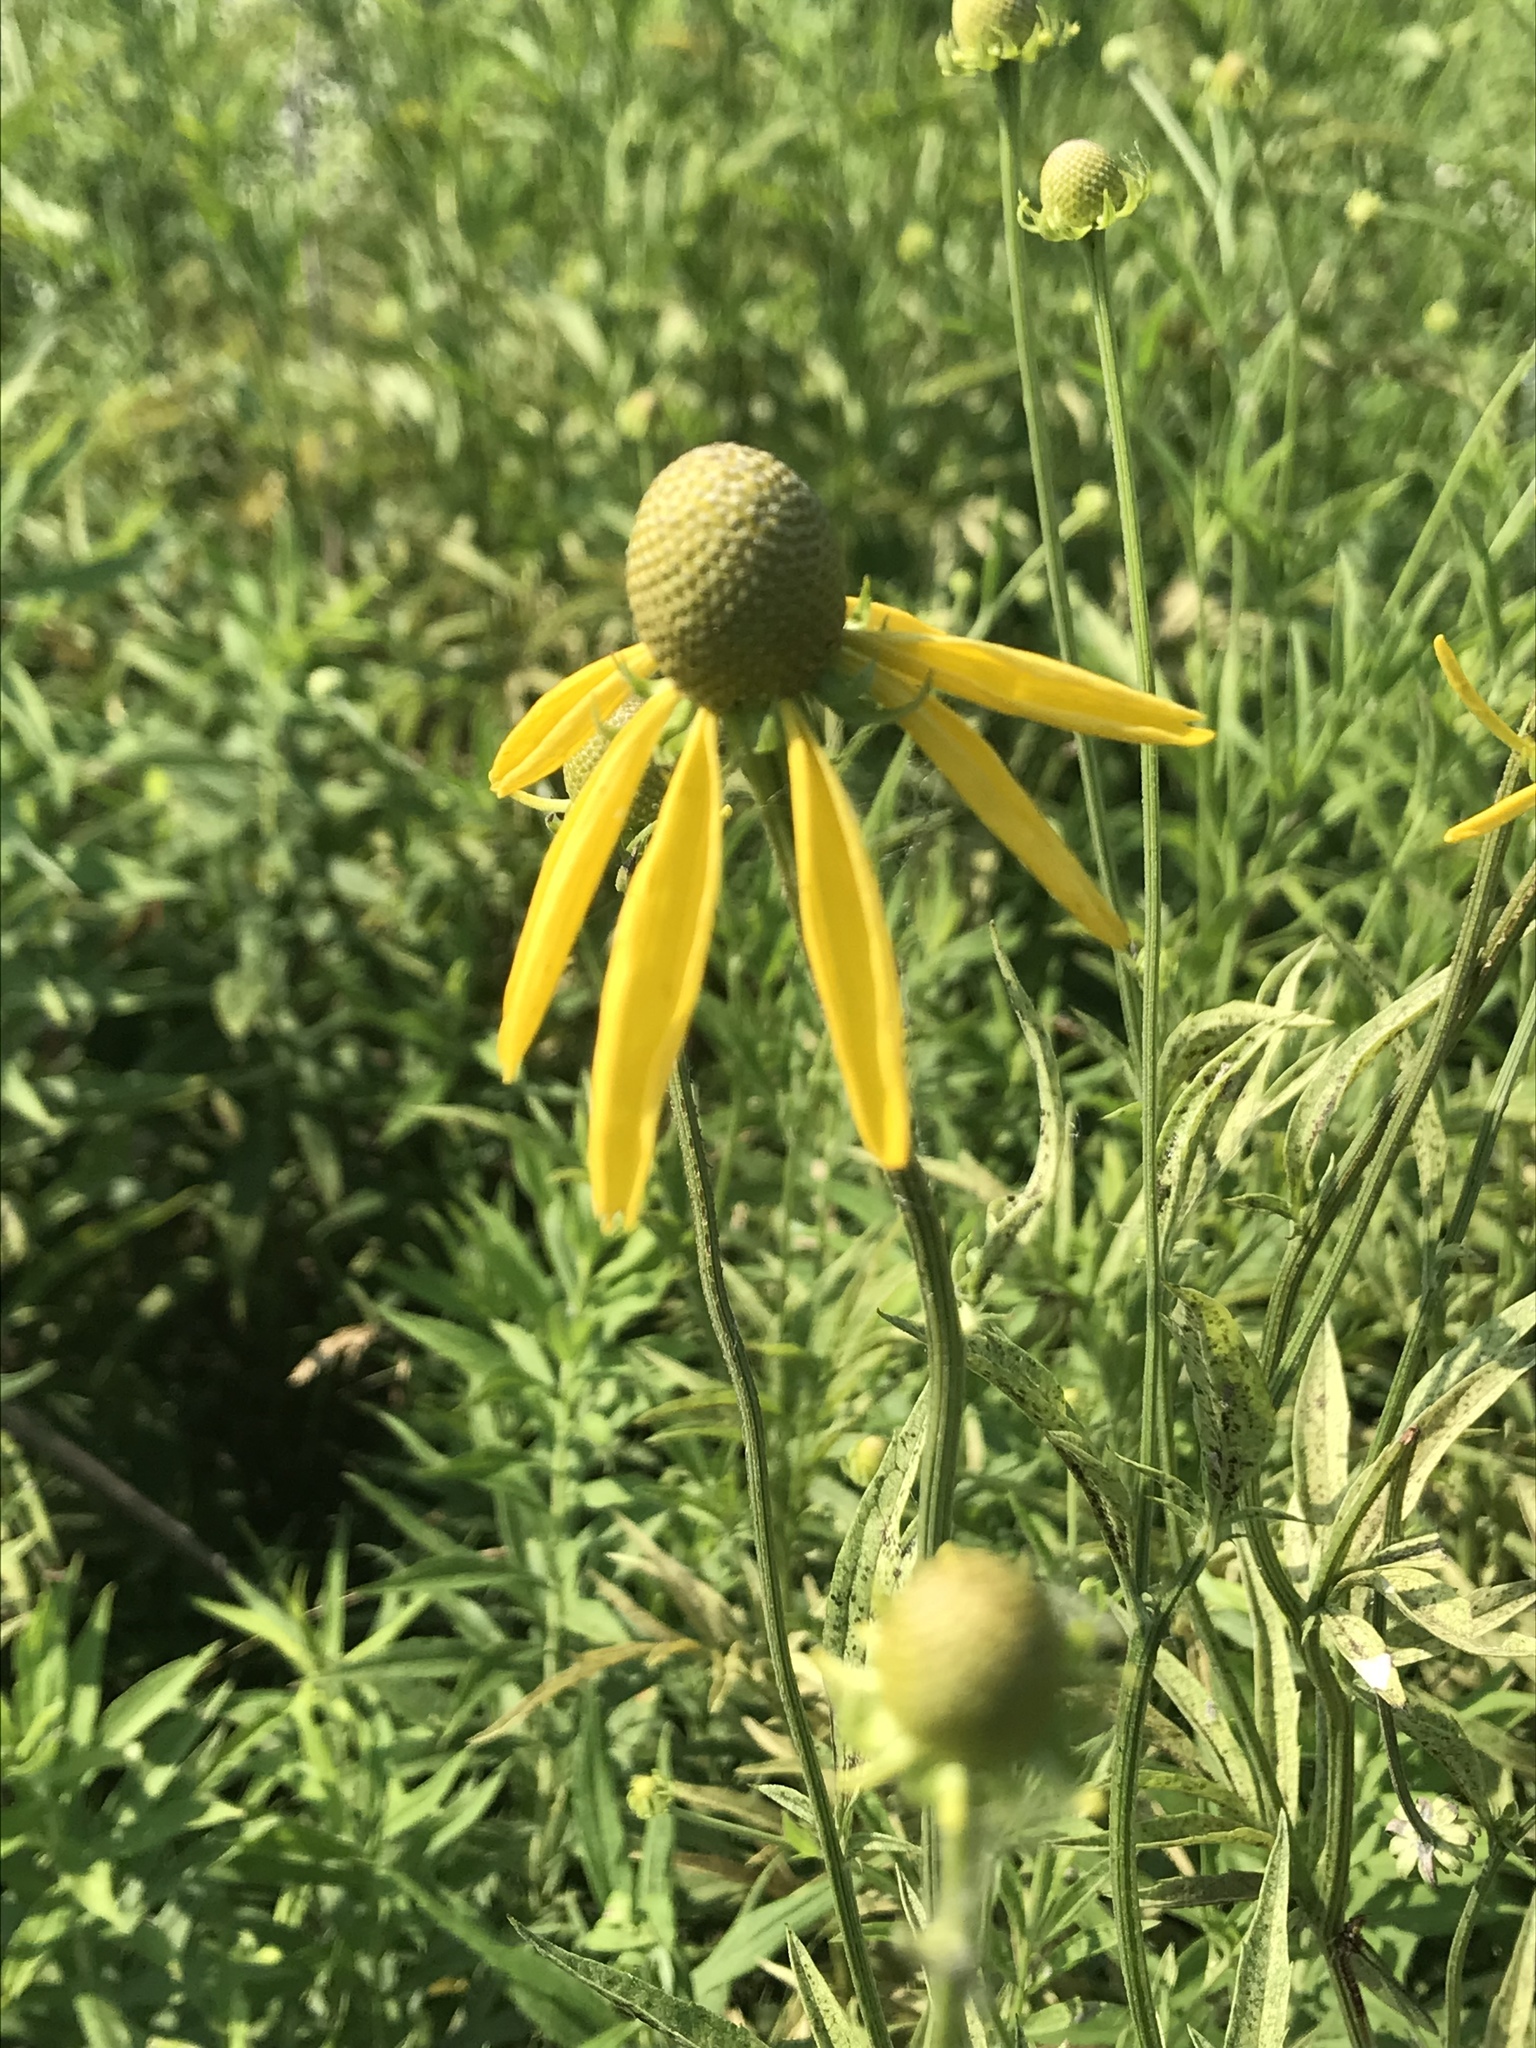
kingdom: Plantae
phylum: Tracheophyta
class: Magnoliopsida
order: Asterales
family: Asteraceae
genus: Ratibida
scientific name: Ratibida pinnata
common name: Drooping prairie-coneflower
